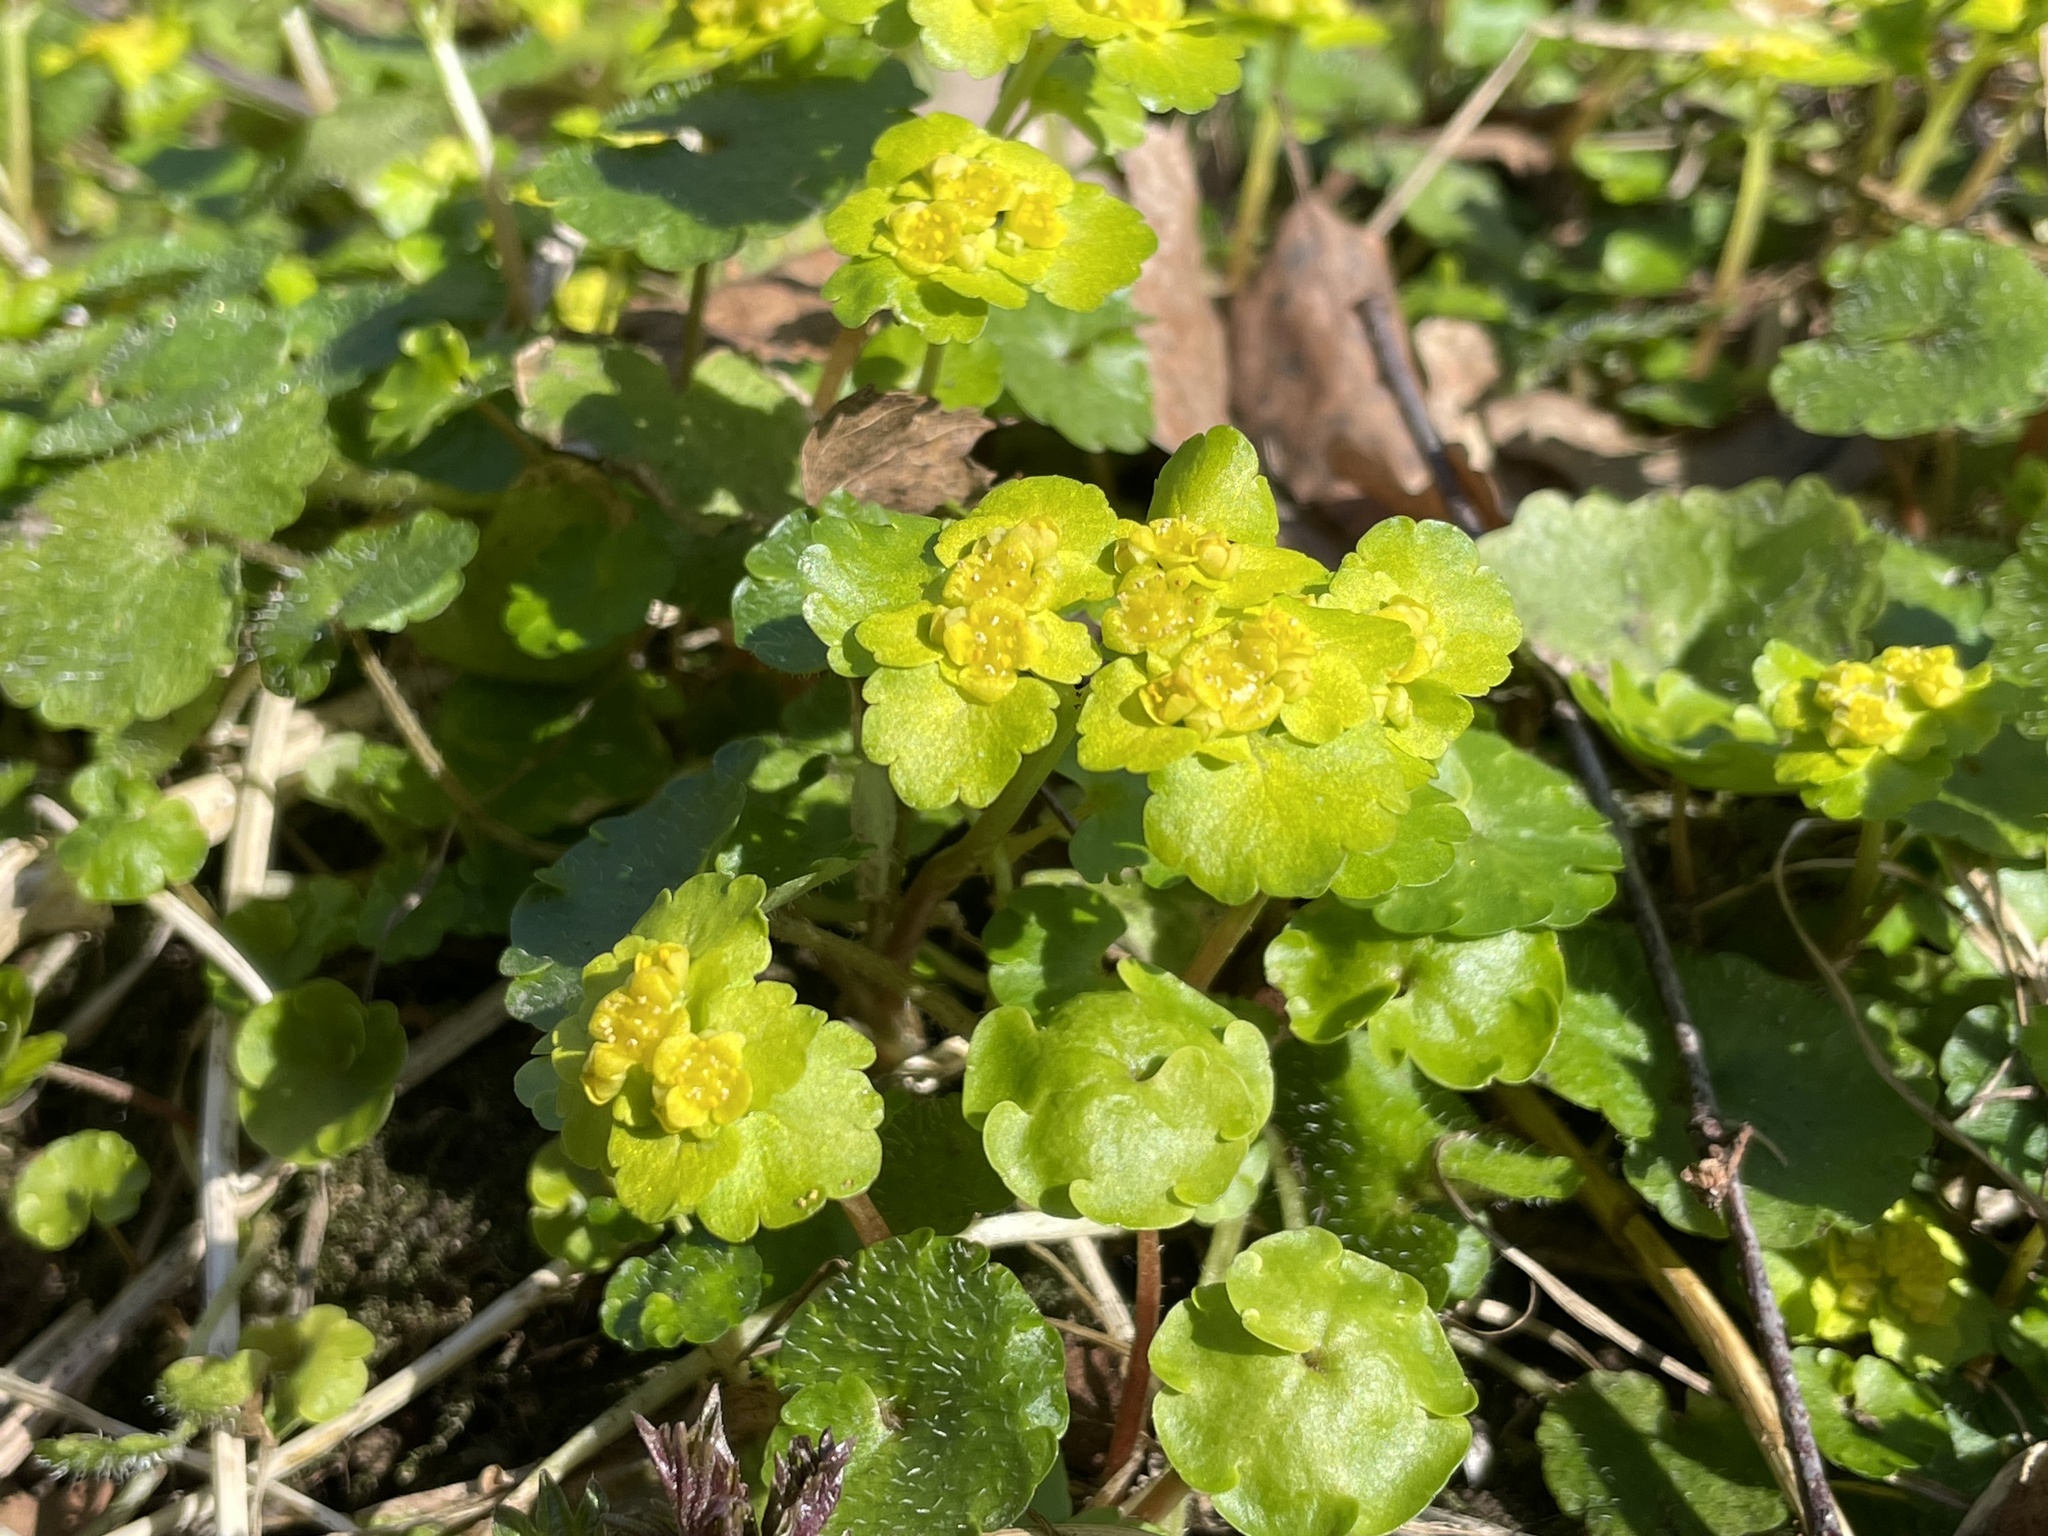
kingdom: Plantae
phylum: Tracheophyta
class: Magnoliopsida
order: Saxifragales
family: Saxifragaceae
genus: Chrysosplenium
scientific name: Chrysosplenium alternifolium
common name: Alternate-leaved golden-saxifrage
